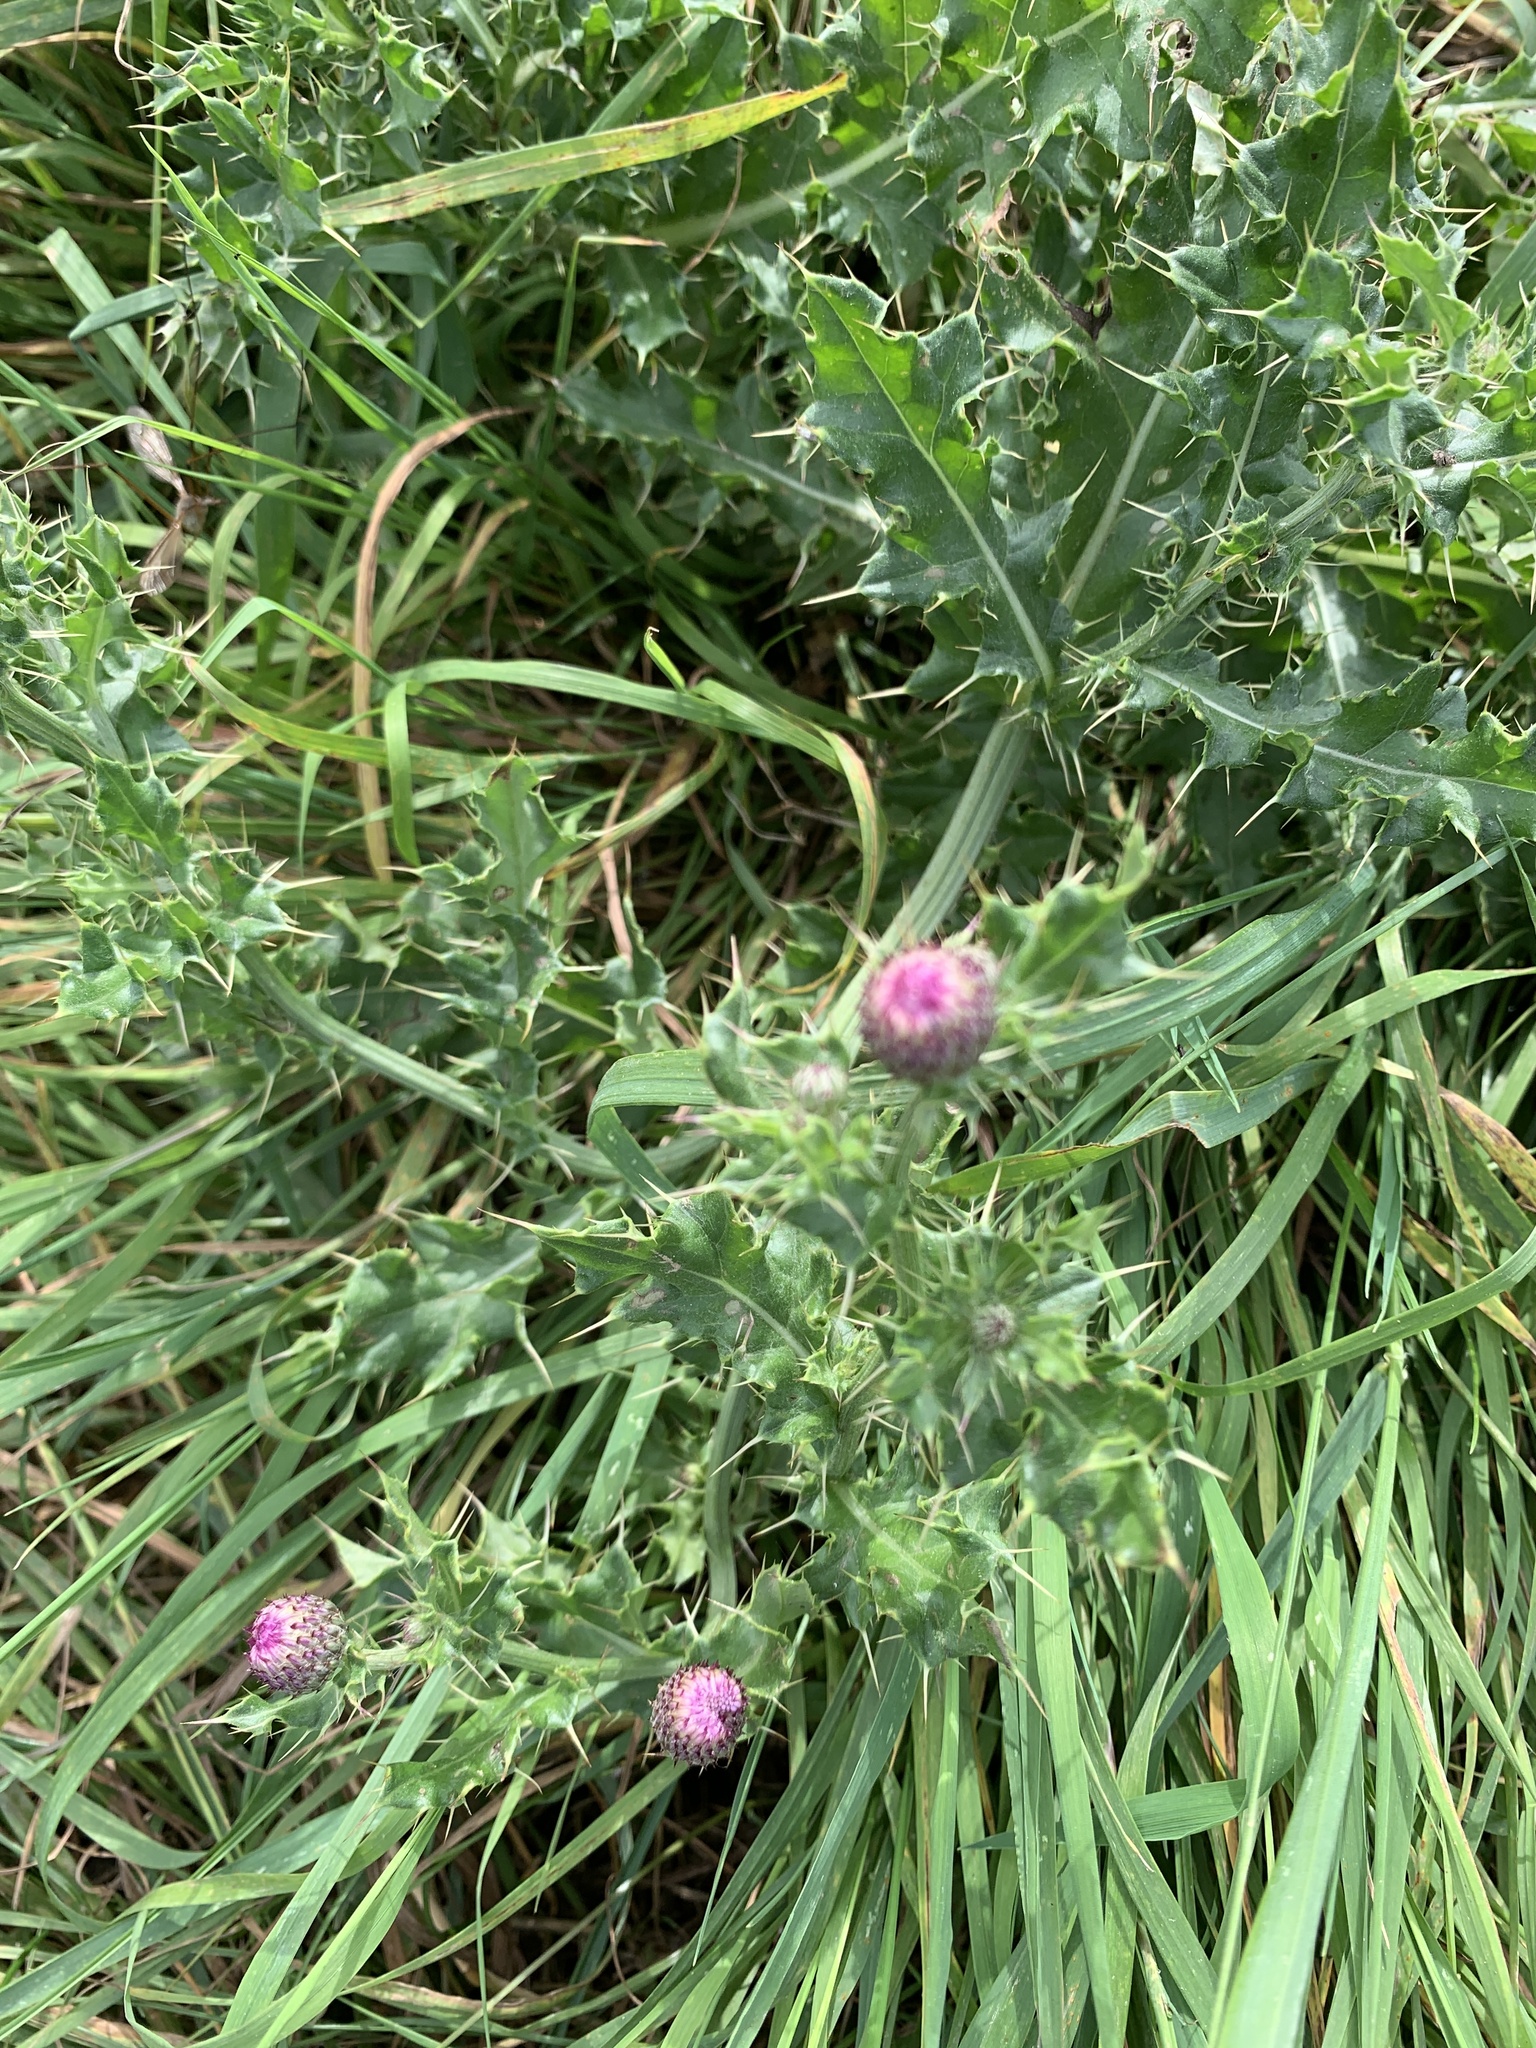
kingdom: Plantae
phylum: Tracheophyta
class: Magnoliopsida
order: Asterales
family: Asteraceae
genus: Cirsium
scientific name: Cirsium arvense
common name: Creeping thistle
